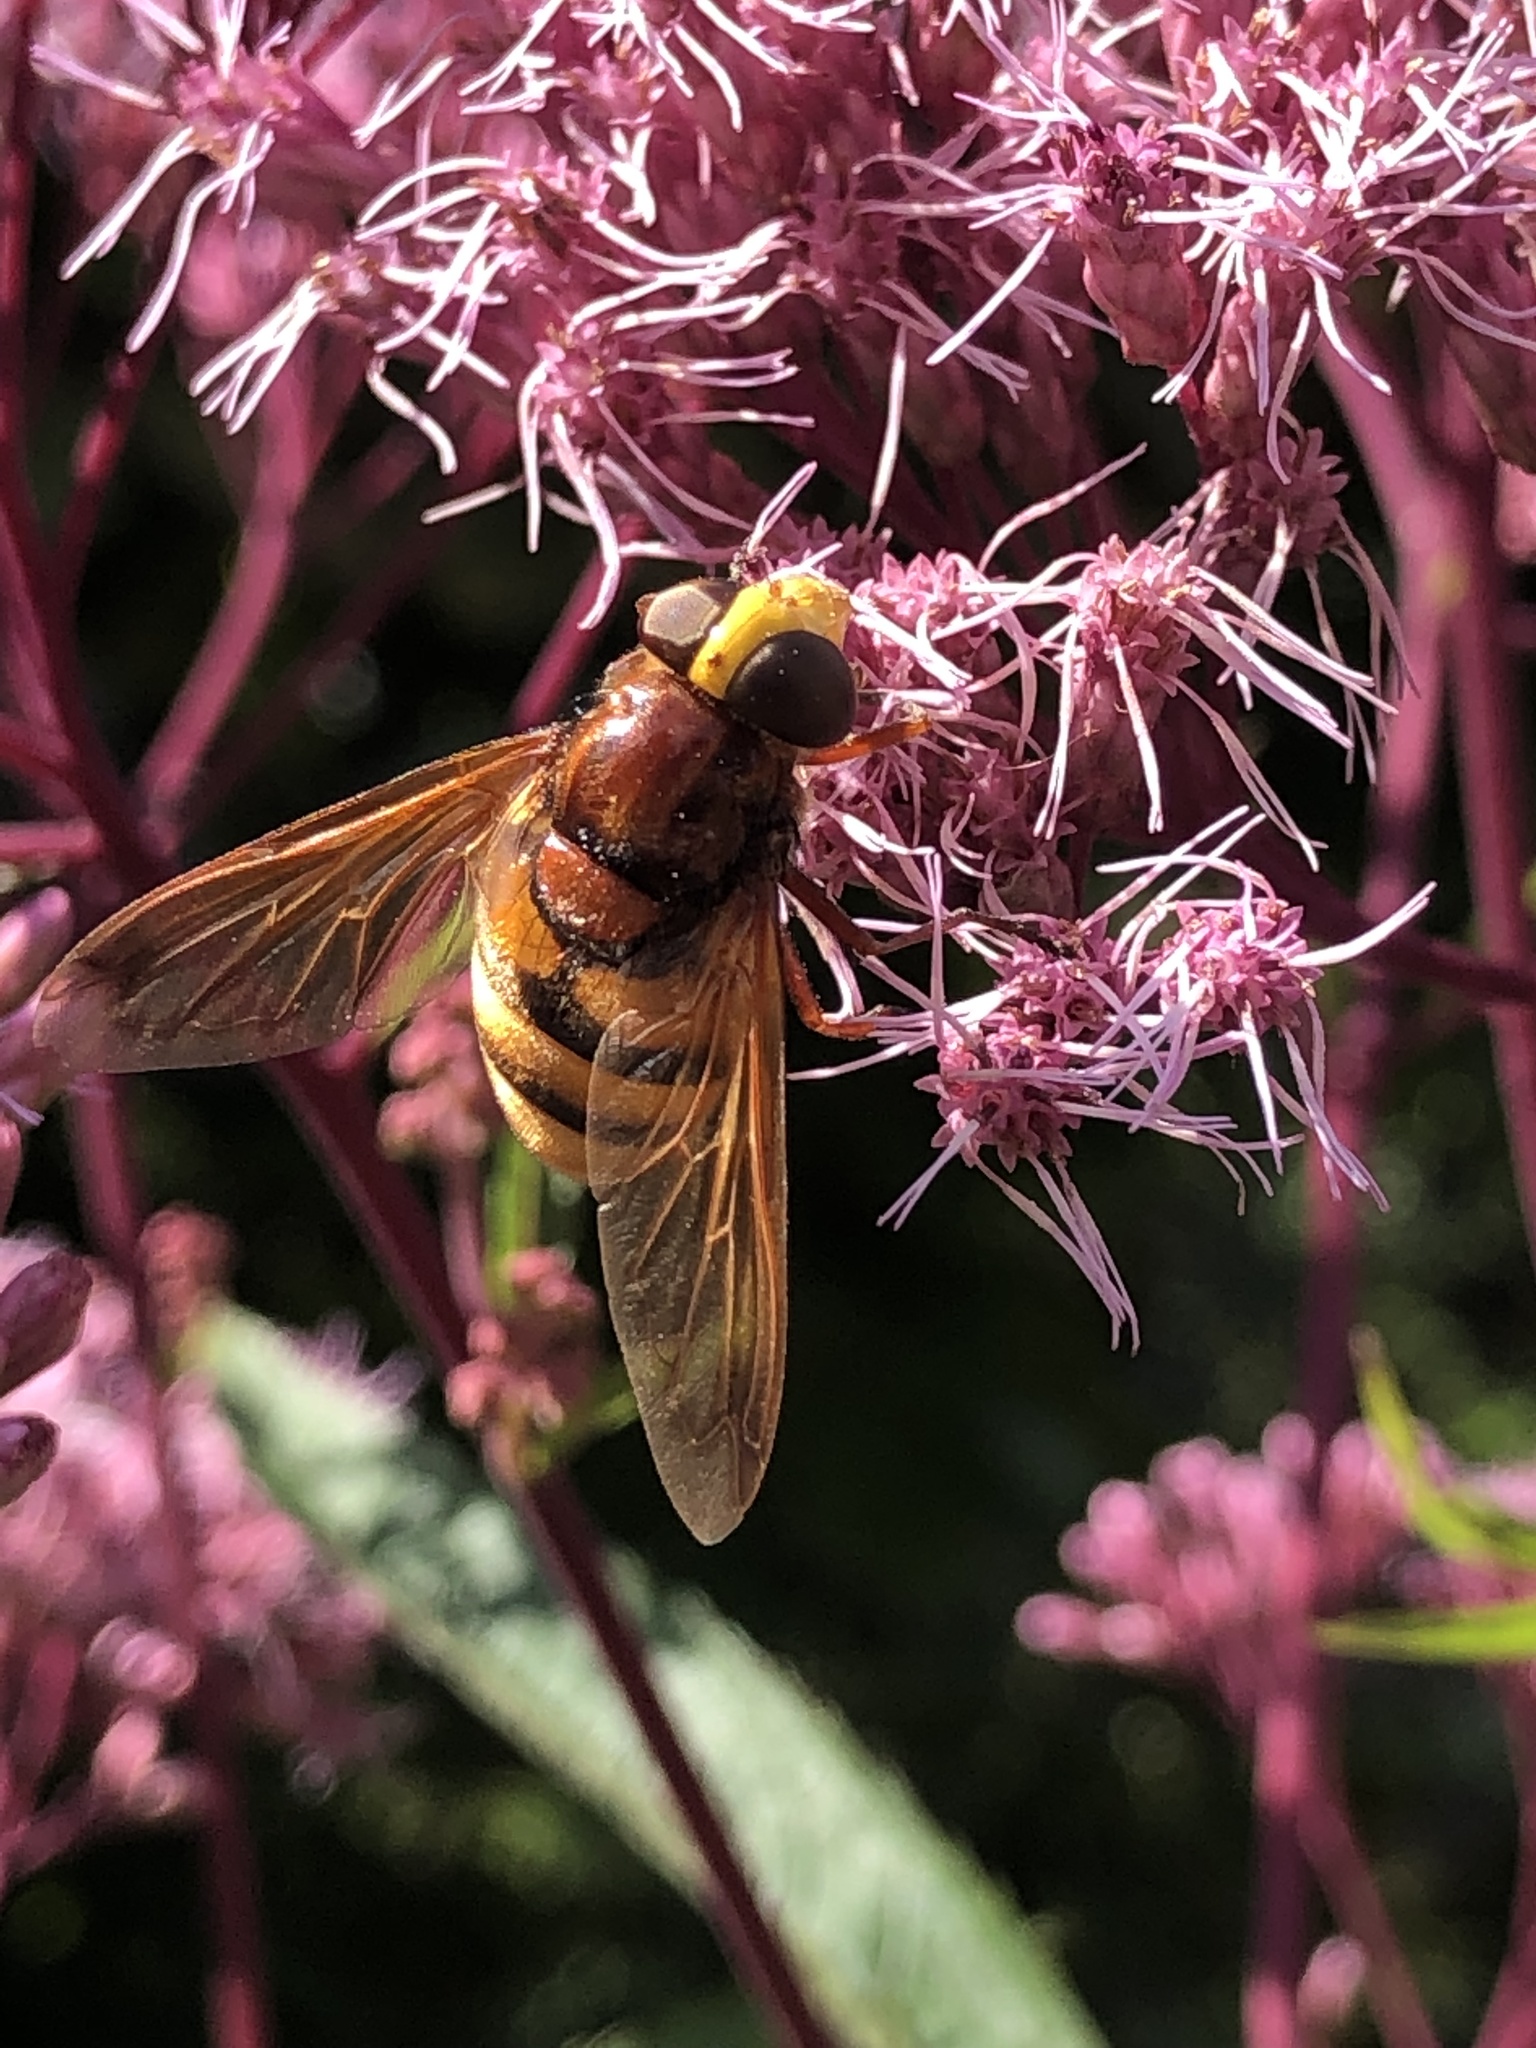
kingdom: Animalia
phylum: Arthropoda
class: Insecta
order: Diptera
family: Syrphidae
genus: Volucella
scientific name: Volucella zonaria
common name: Hornet hoverfly
